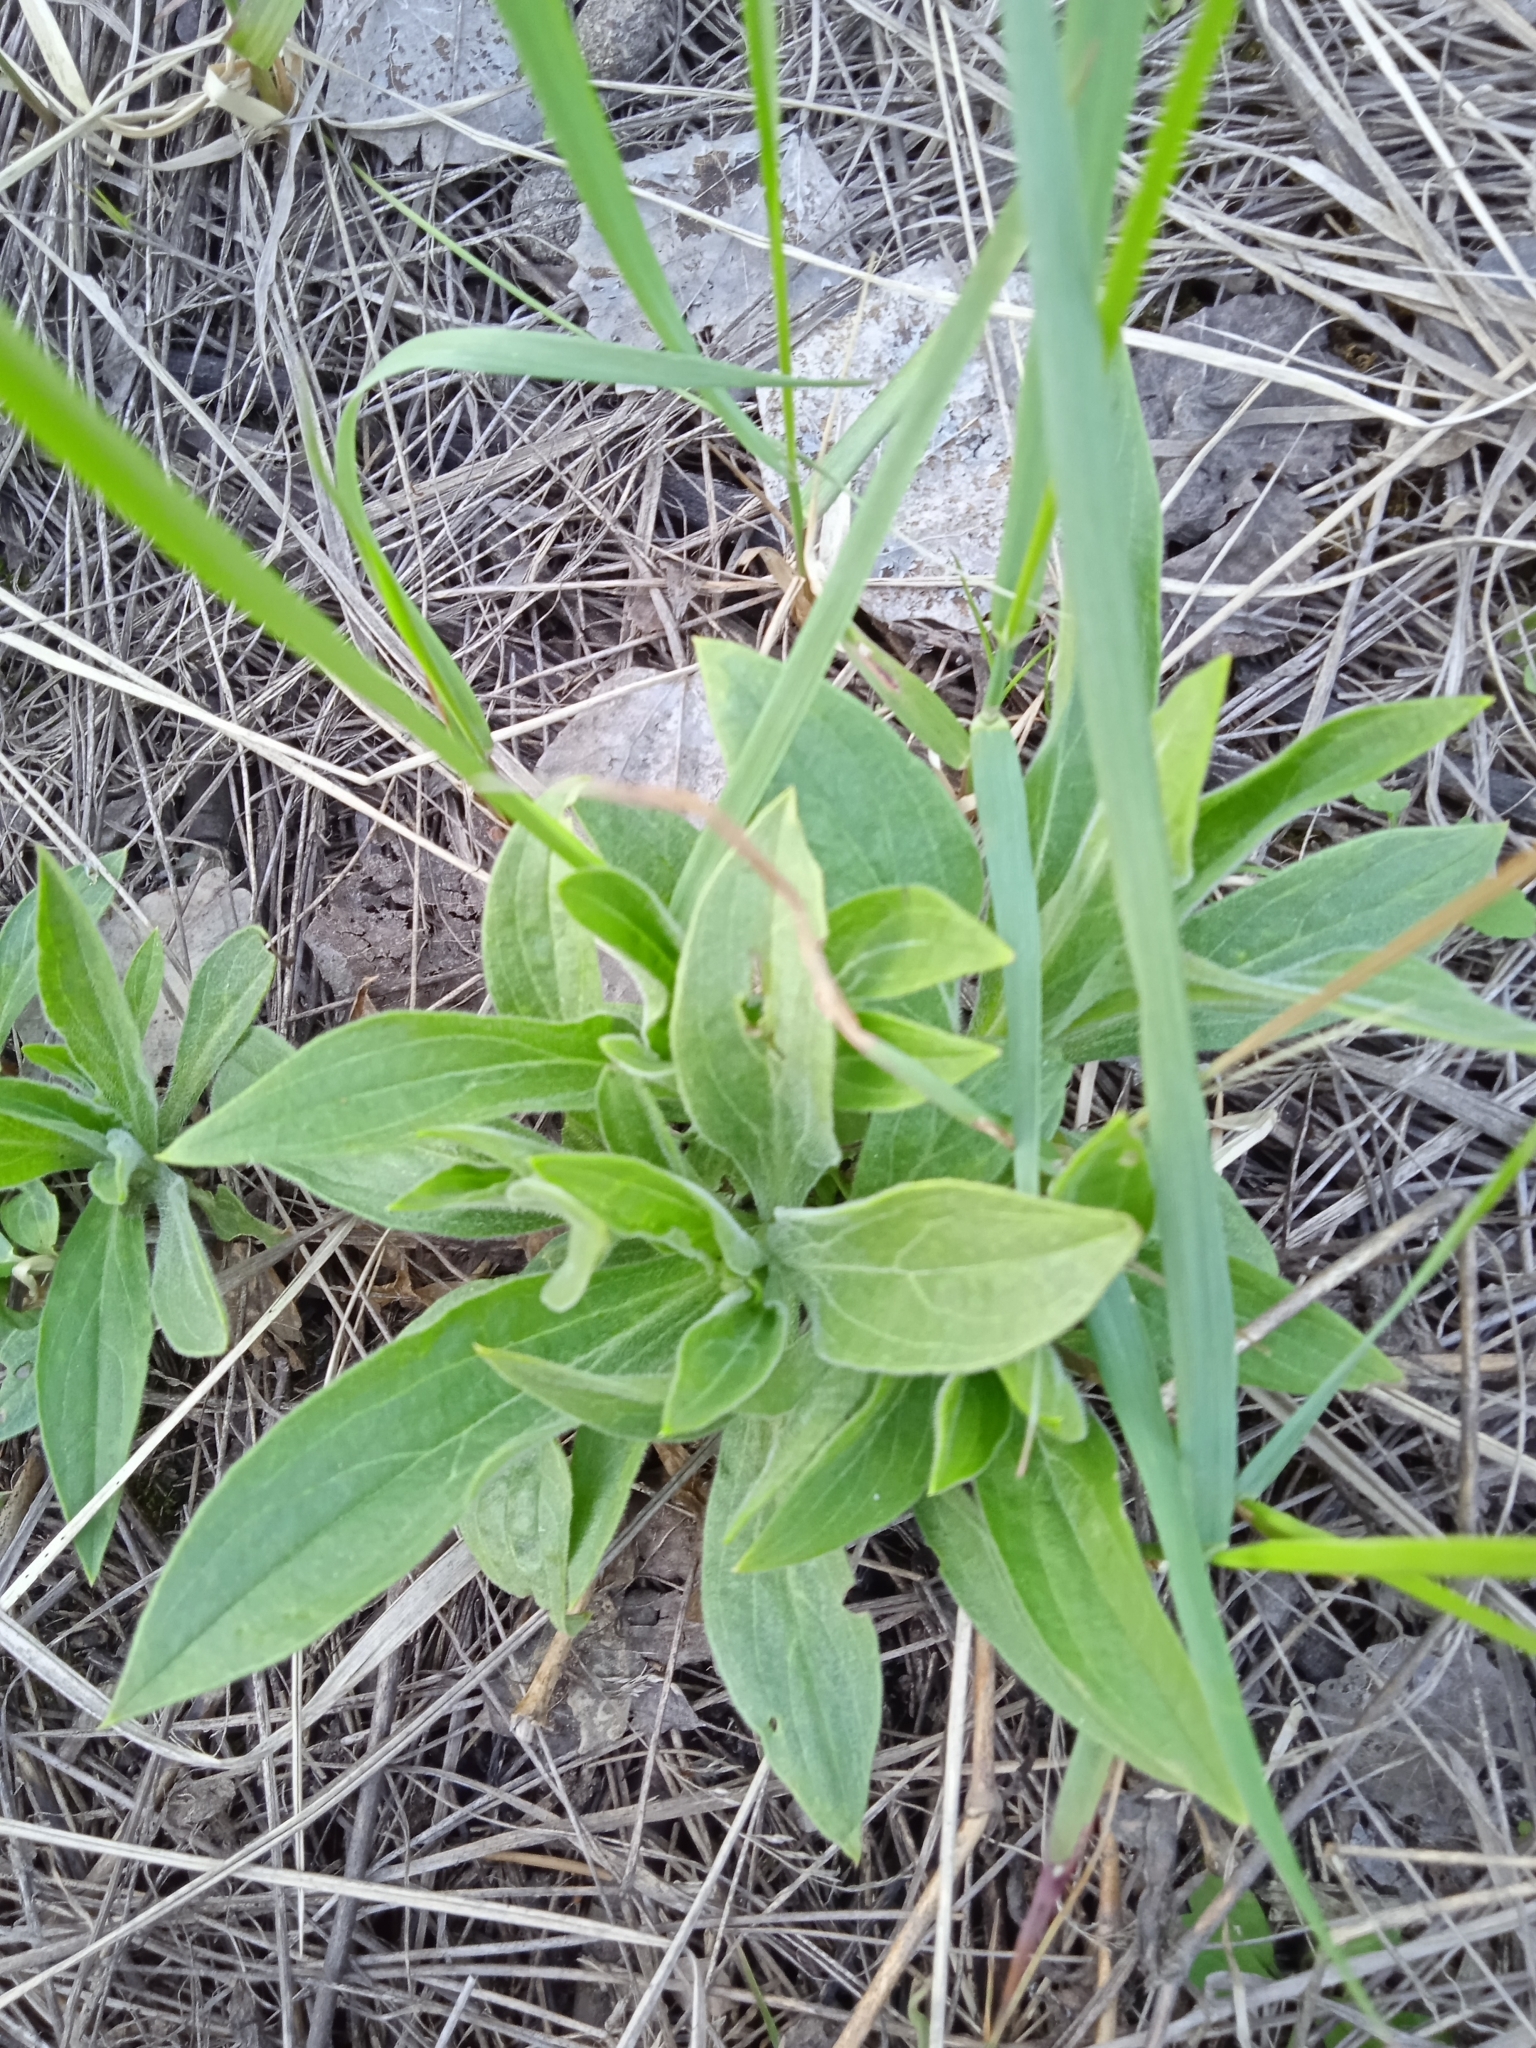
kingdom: Plantae
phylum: Tracheophyta
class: Magnoliopsida
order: Caryophyllales
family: Caryophyllaceae
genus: Silene
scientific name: Silene latifolia
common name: White campion
